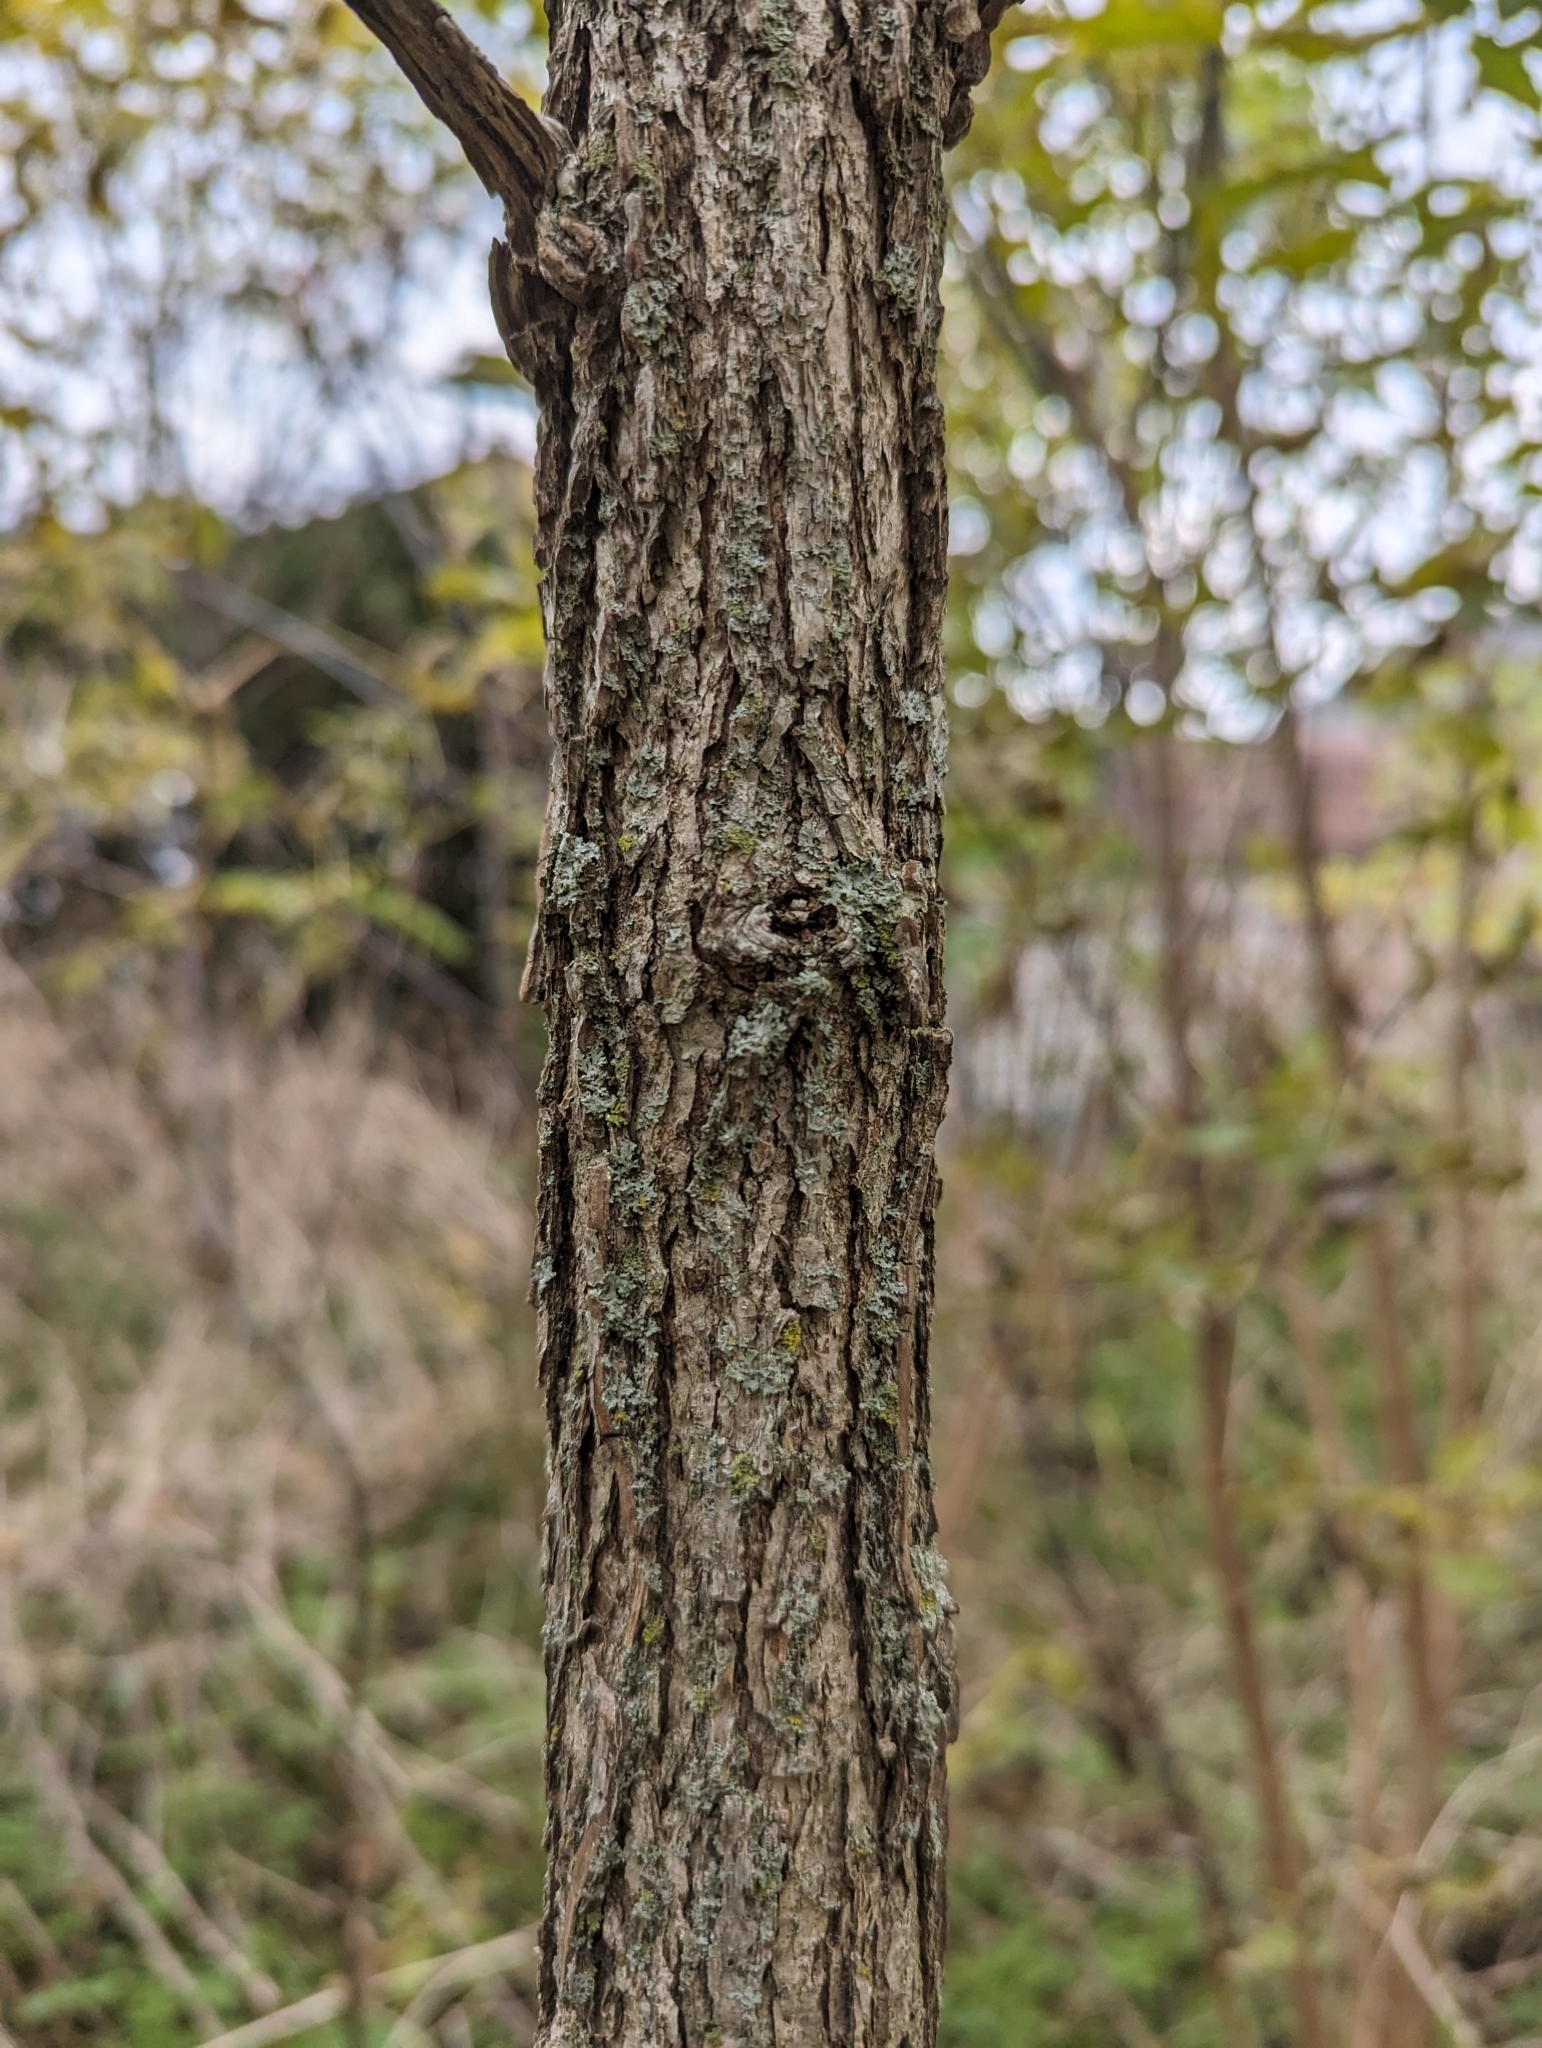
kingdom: Plantae
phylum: Tracheophyta
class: Magnoliopsida
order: Fagales
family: Fagaceae
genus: Quercus
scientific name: Quercus macrocarpa
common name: Bur oak
